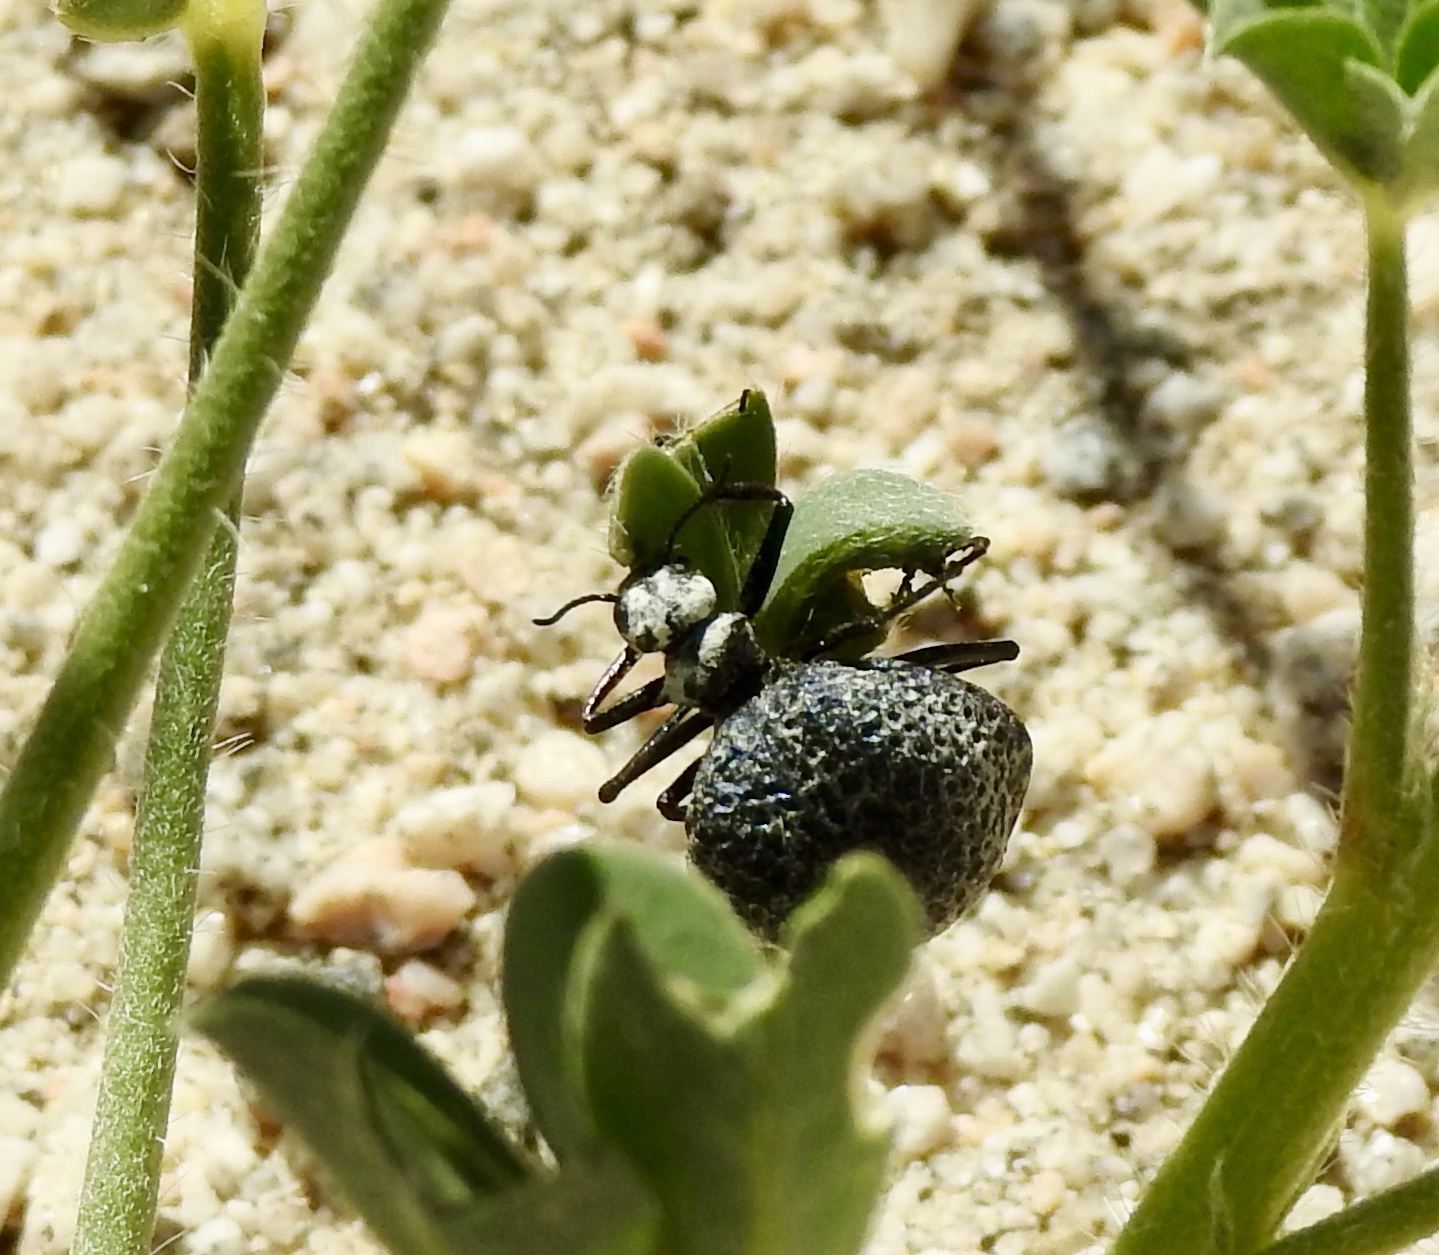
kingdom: Animalia
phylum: Arthropoda
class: Insecta
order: Coleoptera
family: Meloidae
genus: Cysteodemus
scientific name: Cysteodemus armatus
